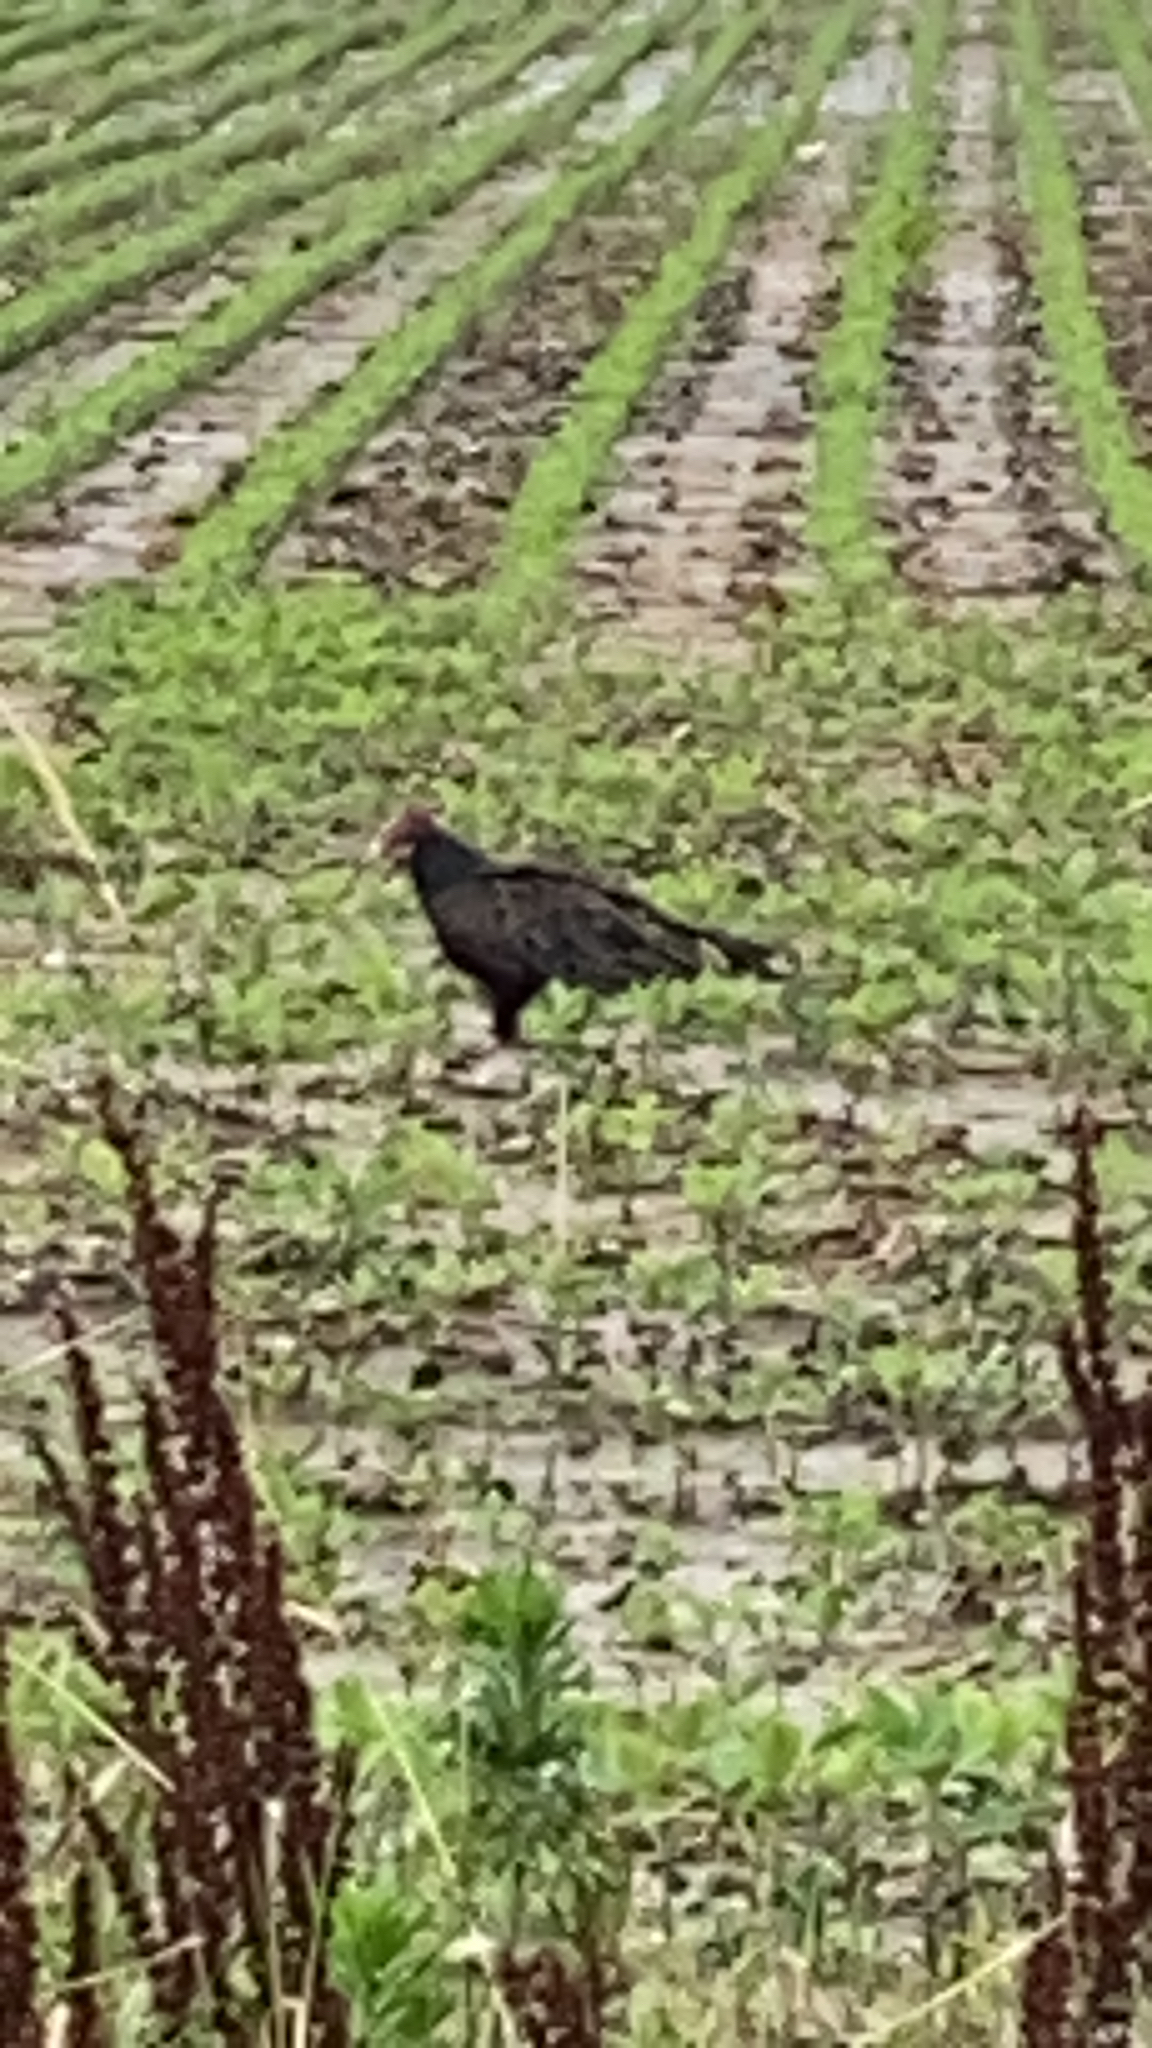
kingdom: Animalia
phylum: Chordata
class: Aves
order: Accipitriformes
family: Cathartidae
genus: Cathartes
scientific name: Cathartes aura
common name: Turkey vulture
